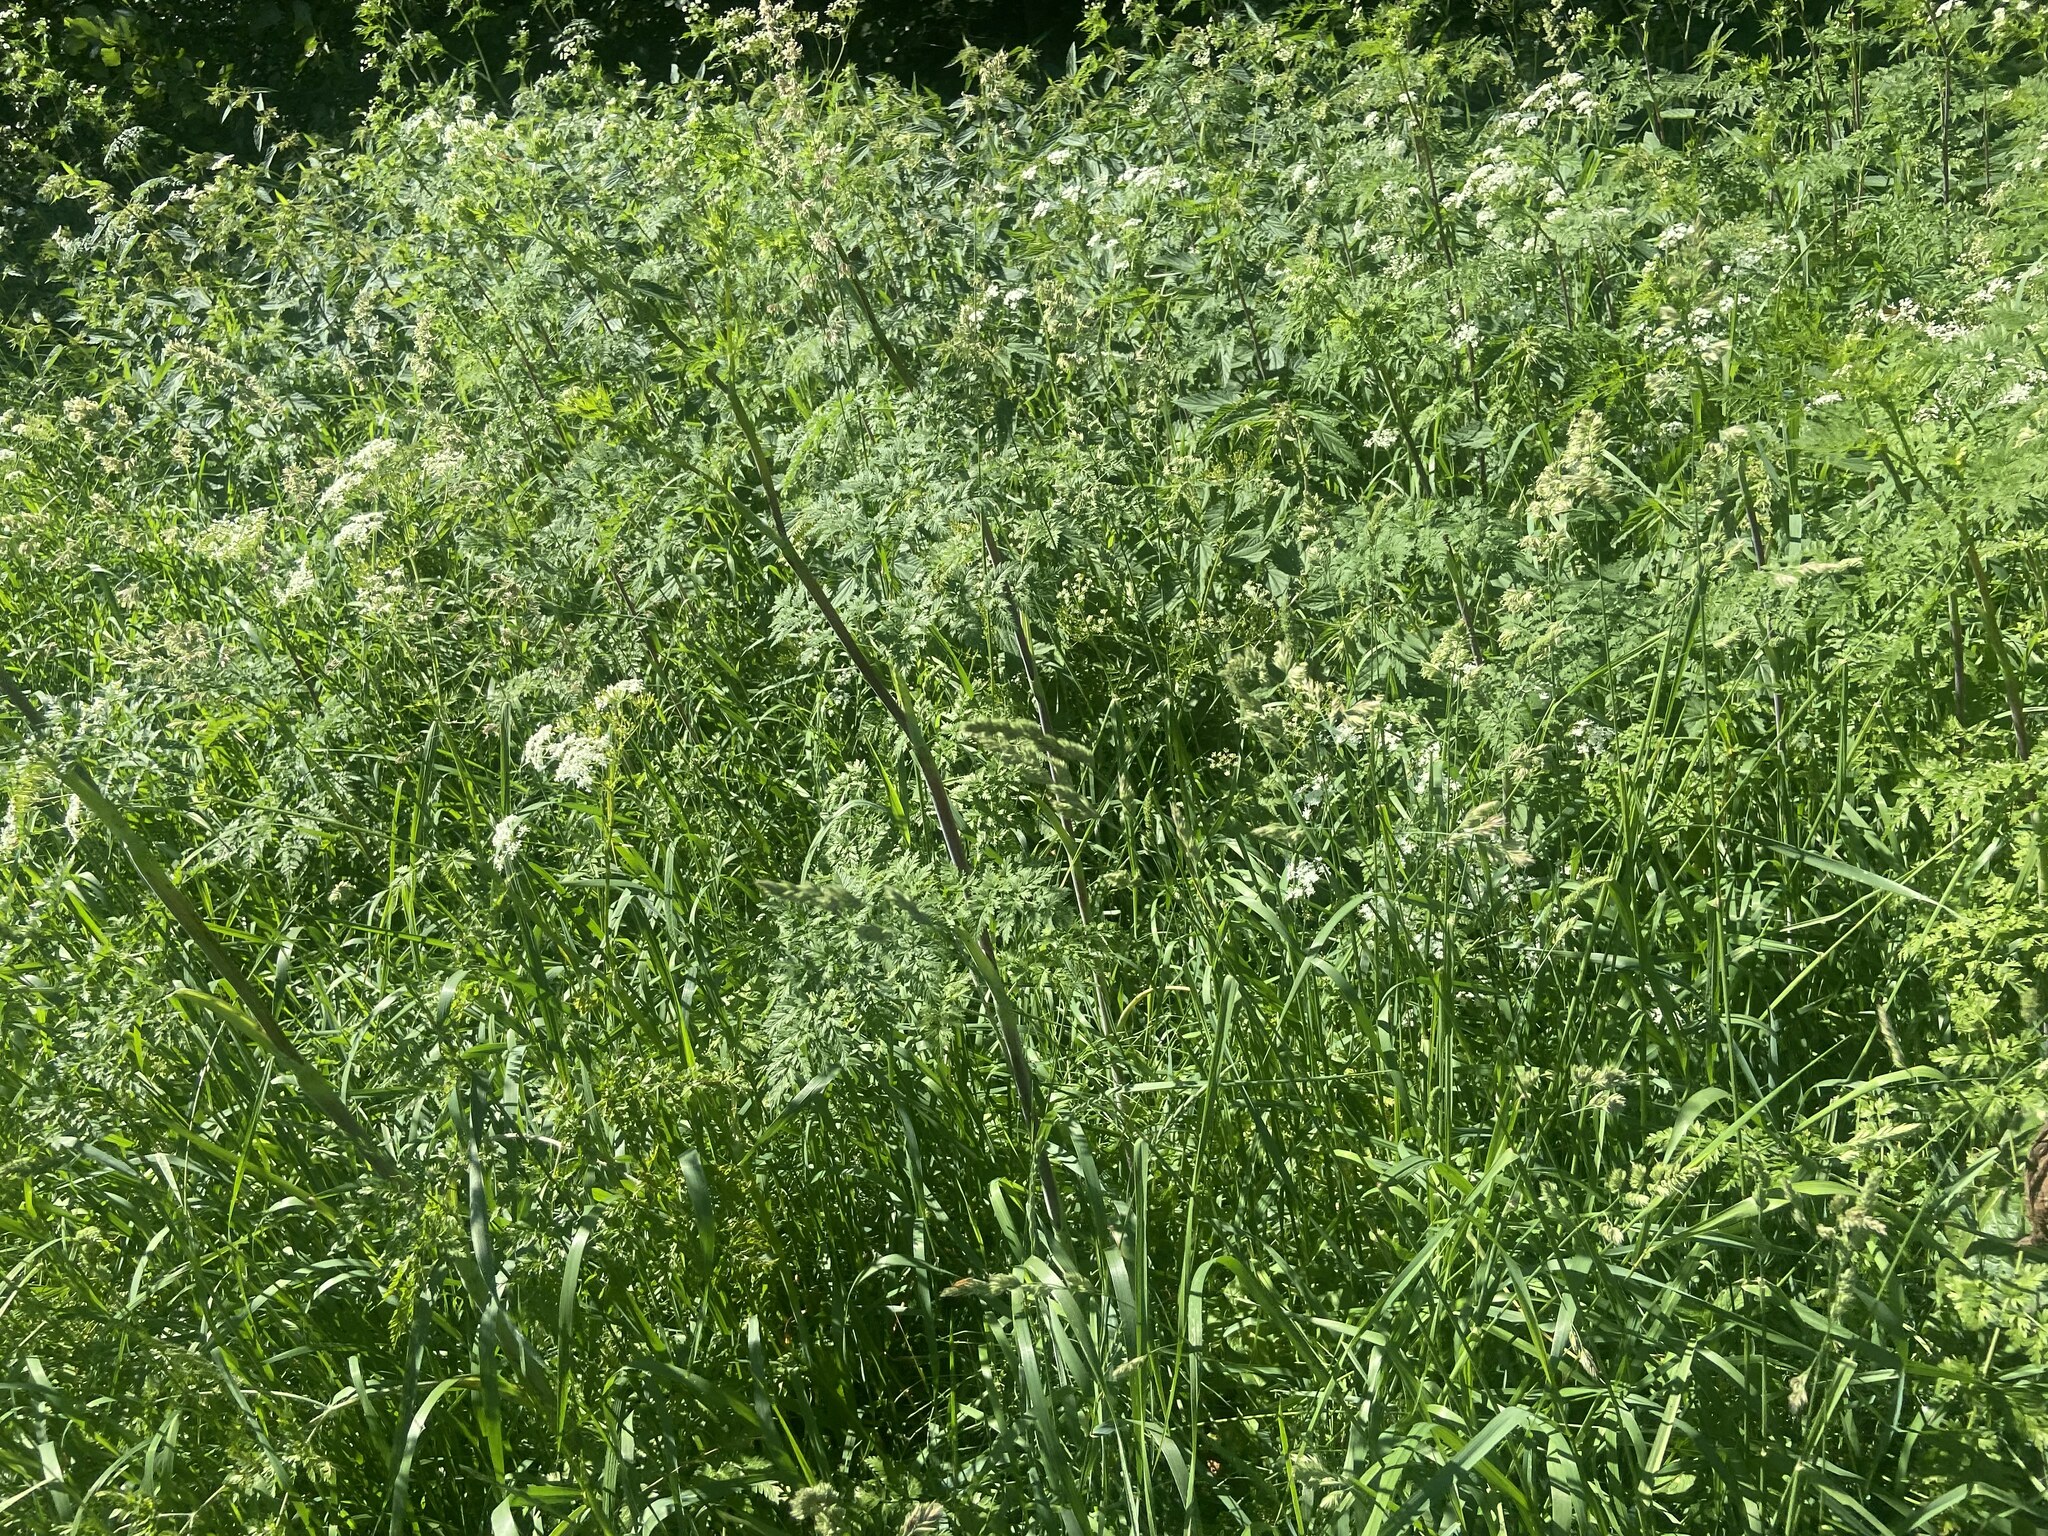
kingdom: Plantae
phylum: Tracheophyta
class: Magnoliopsida
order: Apiales
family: Apiaceae
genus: Anthriscus
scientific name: Anthriscus sylvestris
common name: Cow parsley
